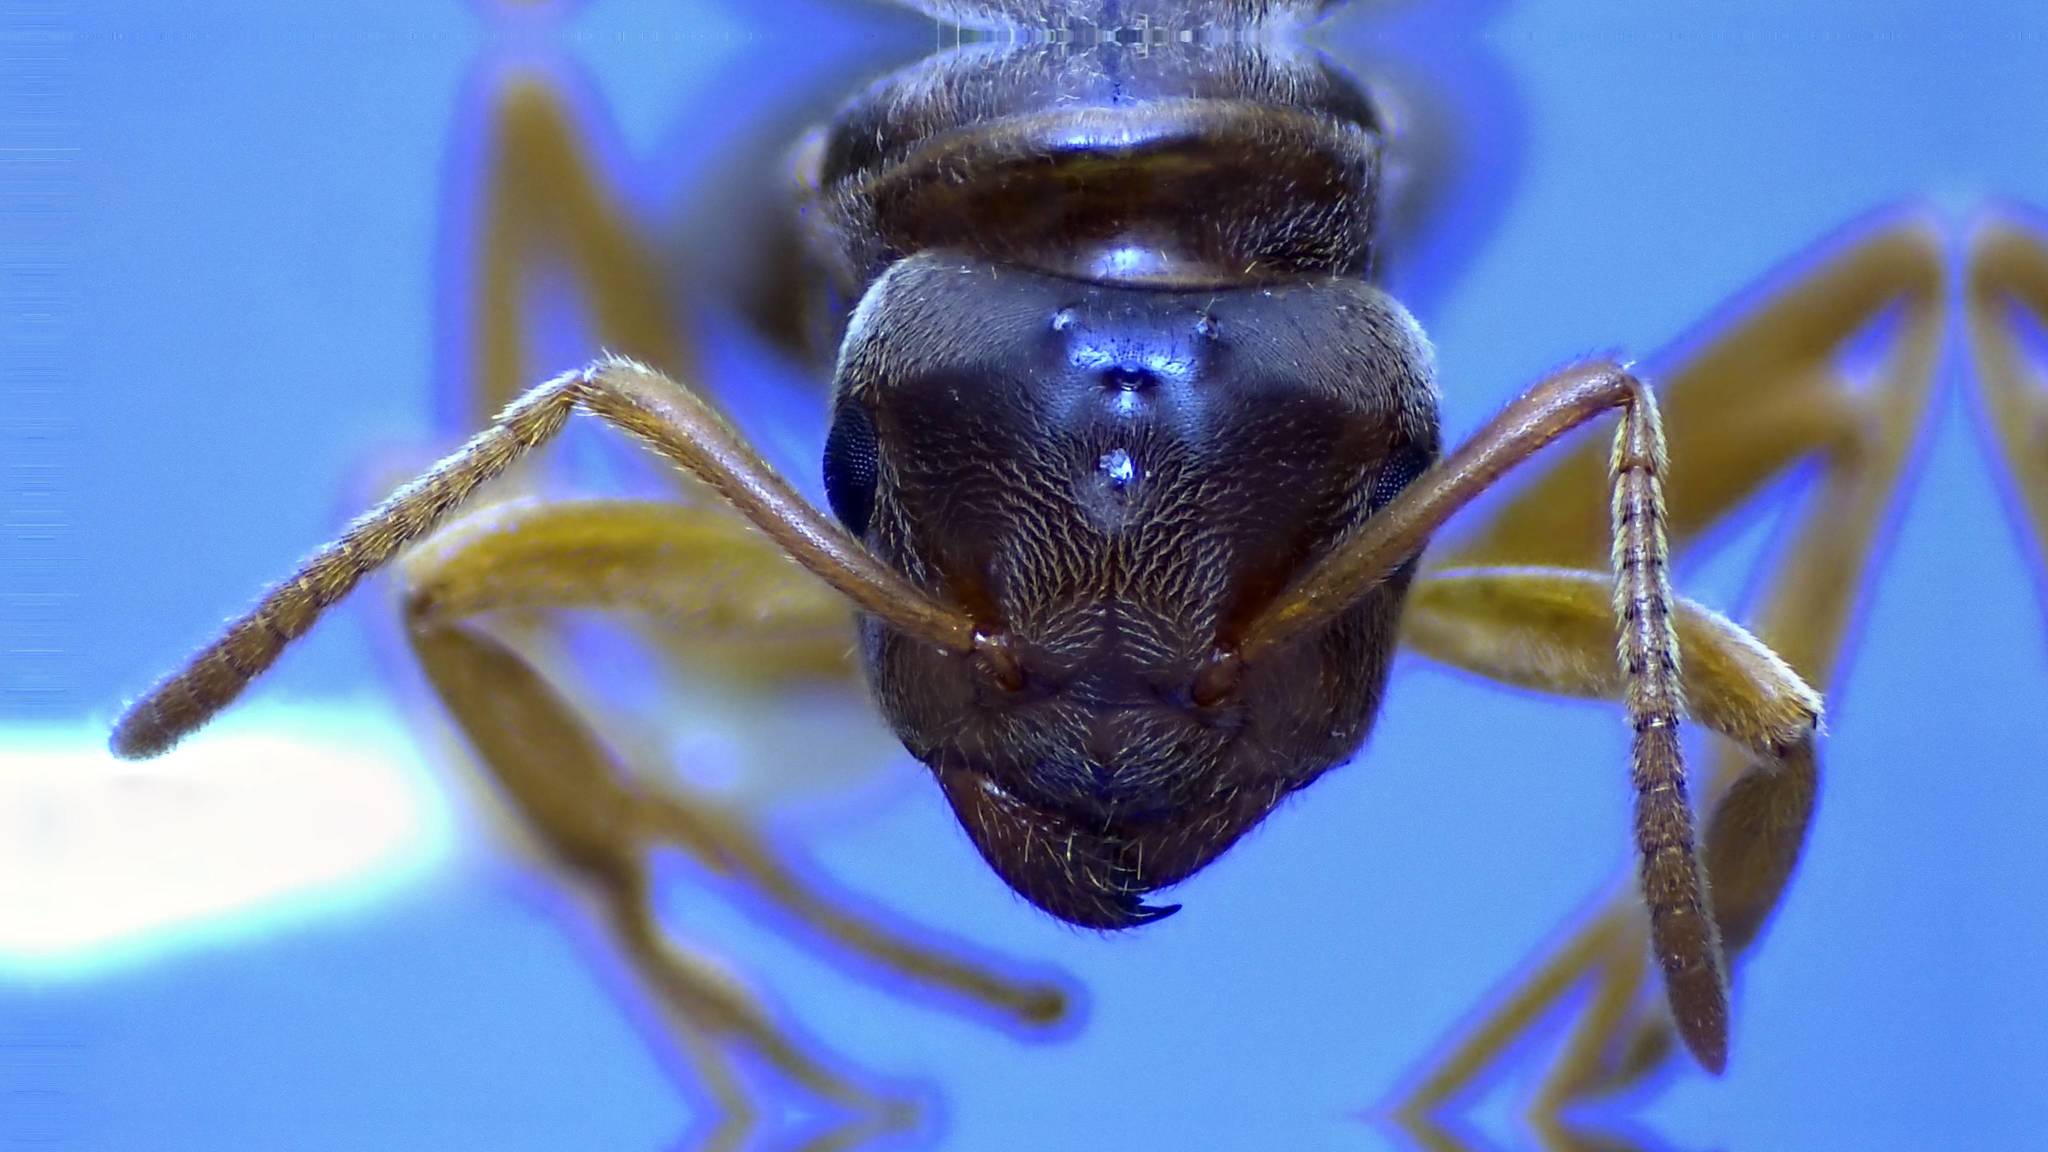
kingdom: Animalia
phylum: Arthropoda
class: Insecta
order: Hymenoptera
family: Formicidae
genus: Lasius
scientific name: Lasius speculiventris
